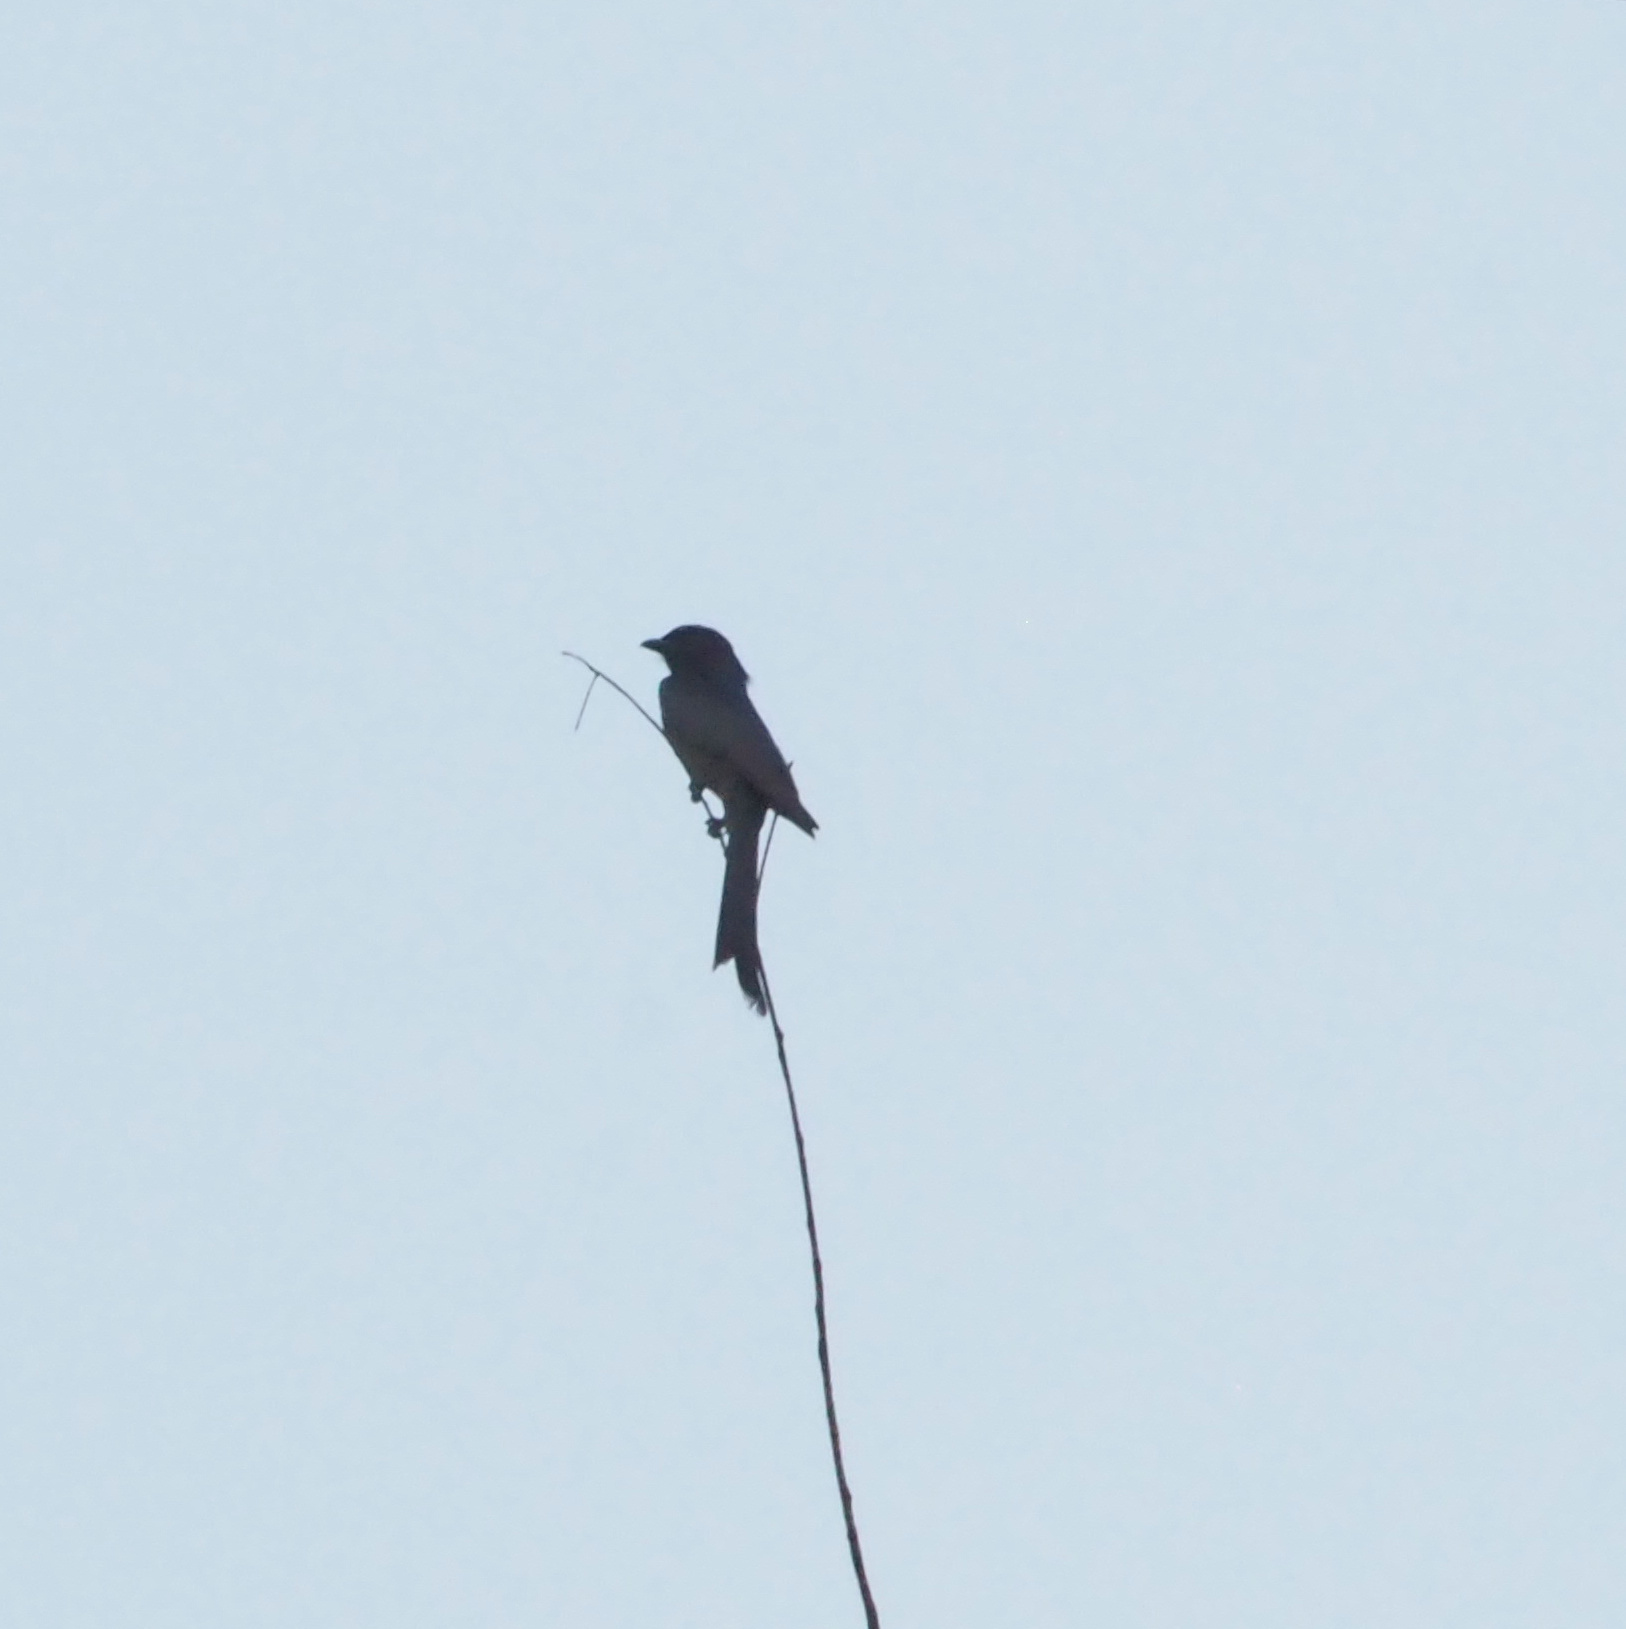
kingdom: Animalia
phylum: Chordata
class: Aves
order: Passeriformes
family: Dicruridae
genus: Dicrurus
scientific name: Dicrurus macrocercus
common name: Black drongo
